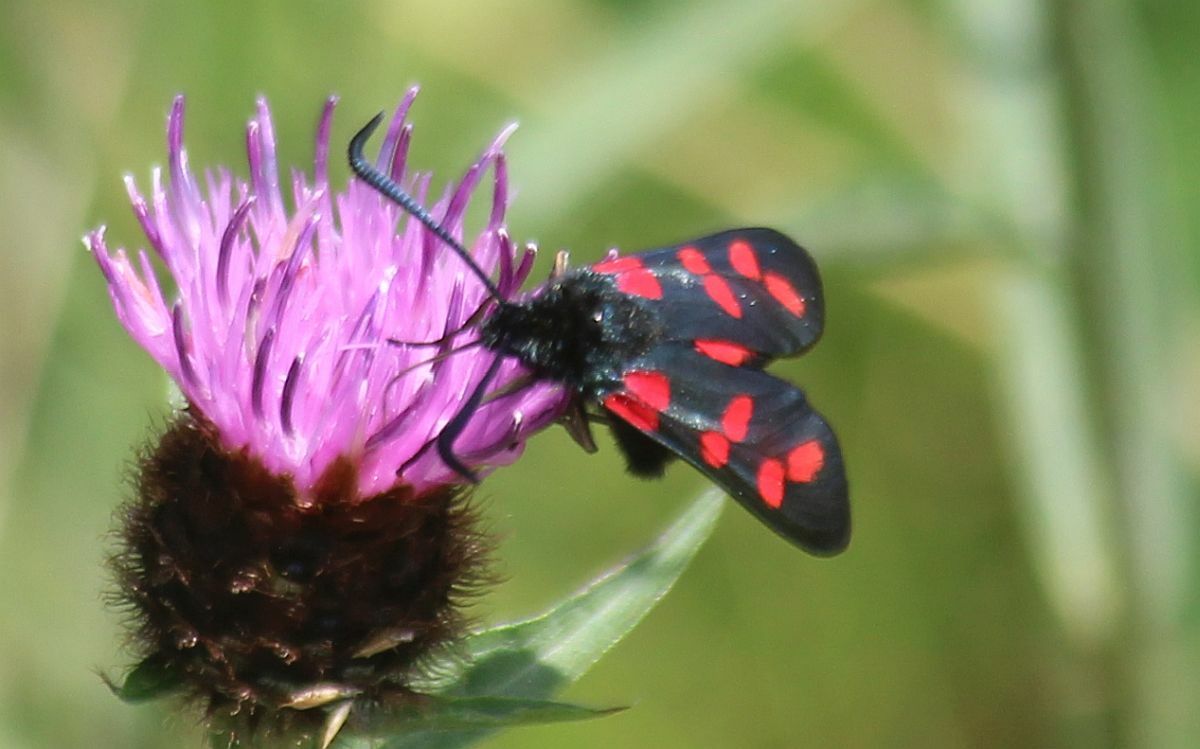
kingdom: Animalia
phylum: Arthropoda
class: Insecta
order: Lepidoptera
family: Zygaenidae
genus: Zygaena
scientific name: Zygaena filipendulae
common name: Six-spot burnet
